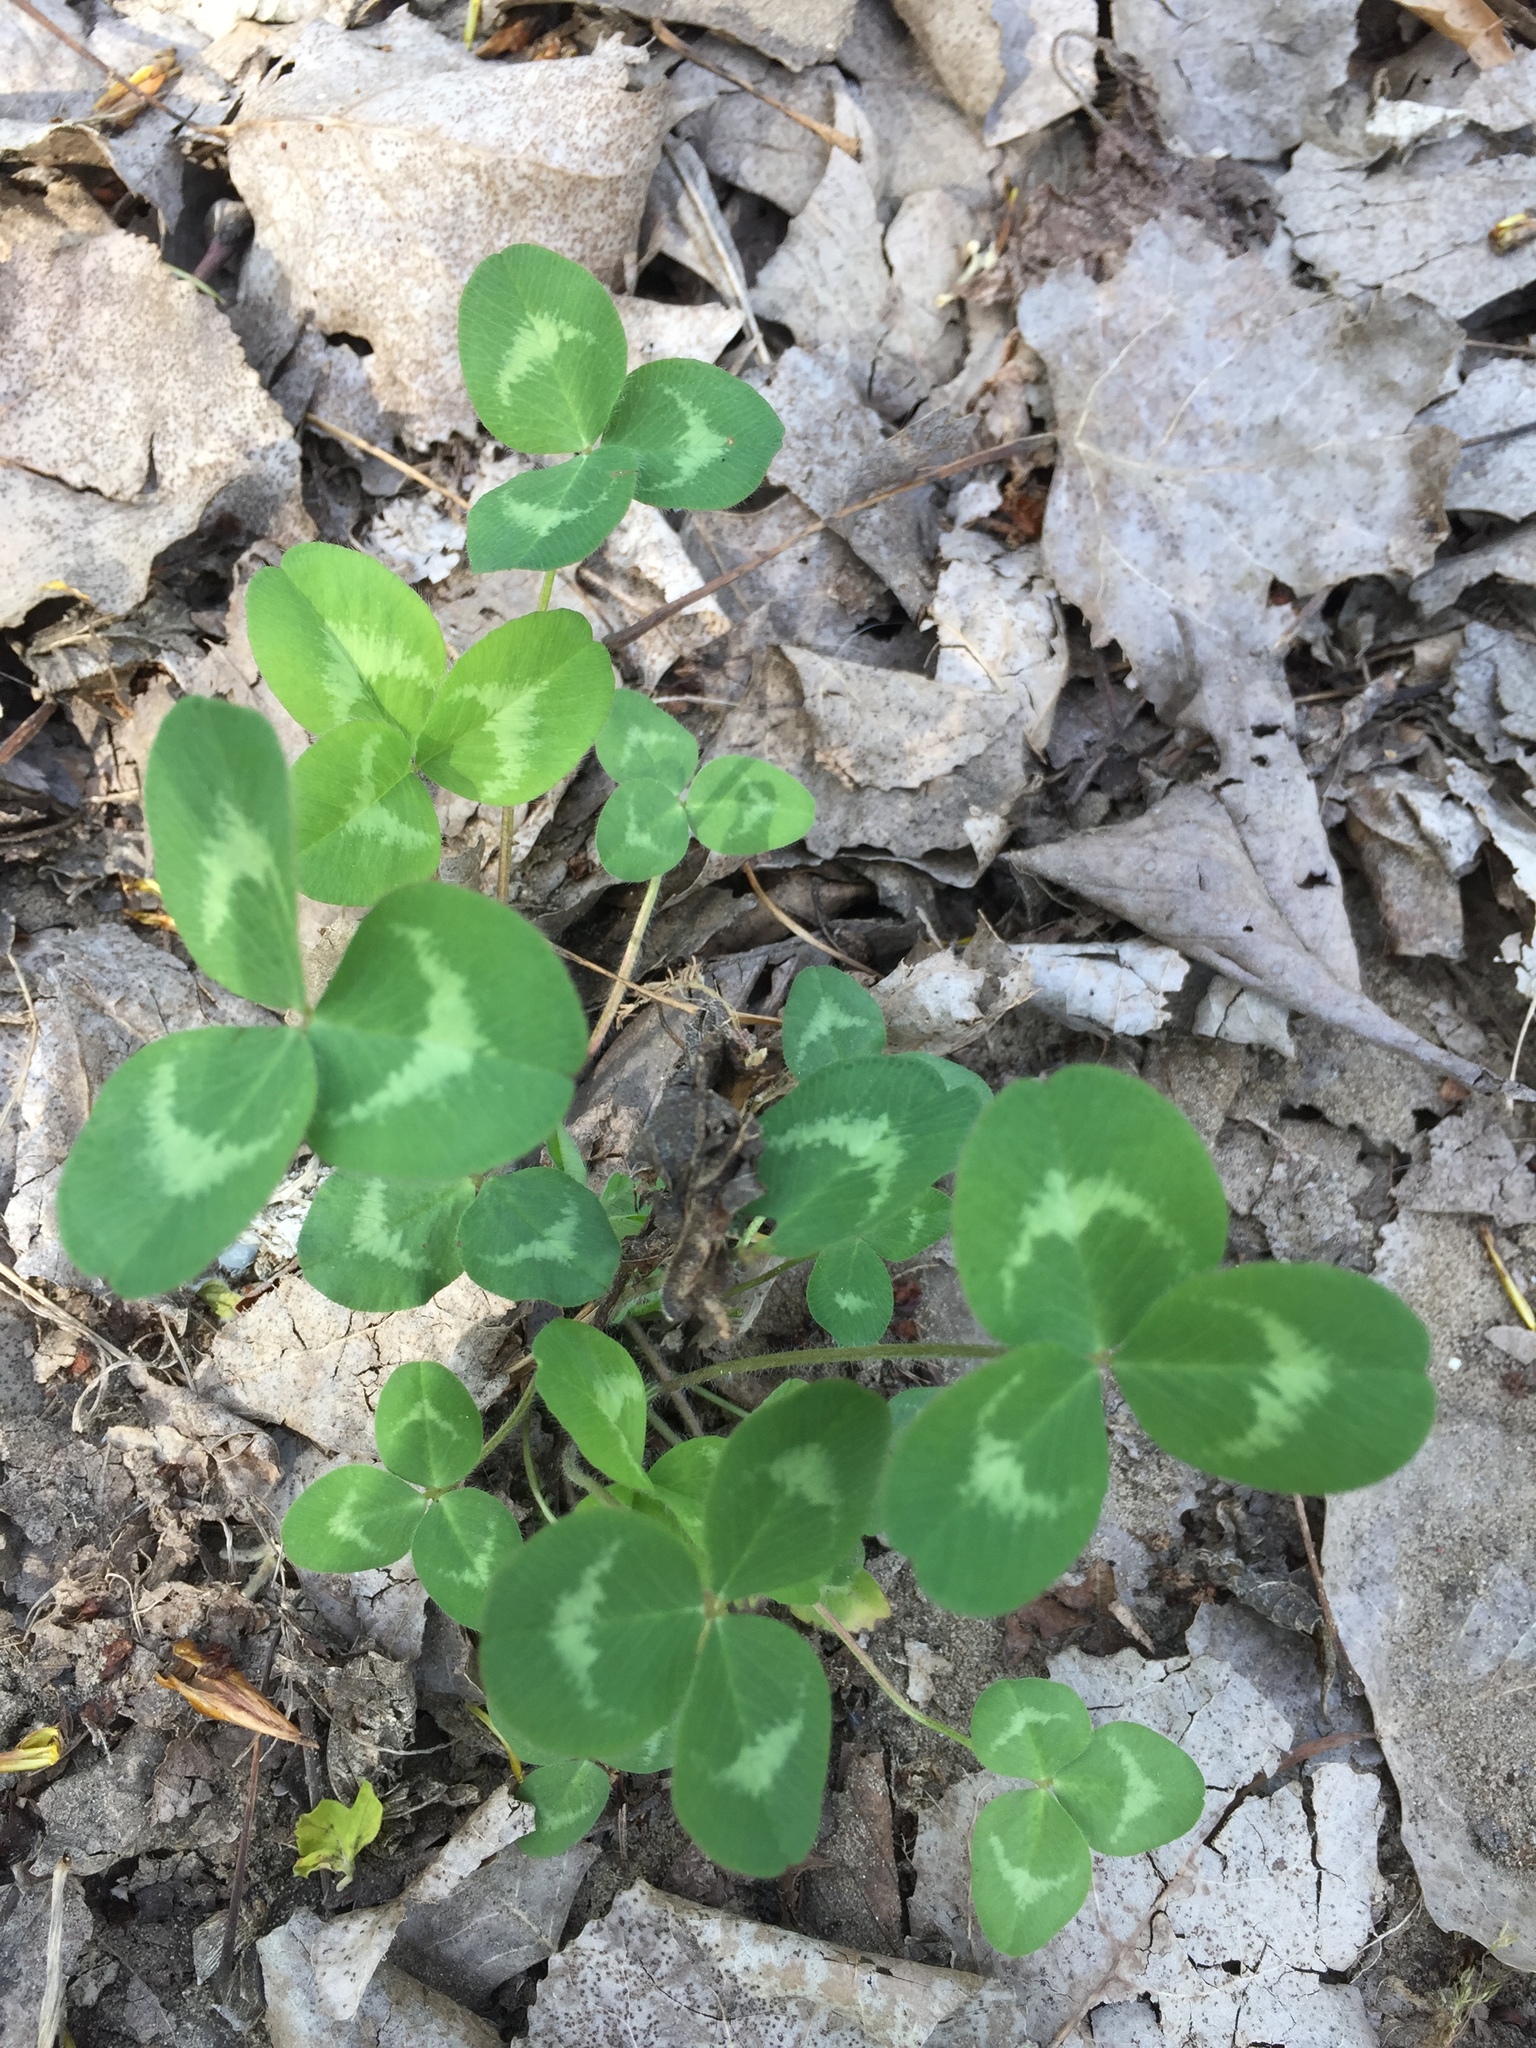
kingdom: Plantae
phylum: Tracheophyta
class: Magnoliopsida
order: Fabales
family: Fabaceae
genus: Trifolium
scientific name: Trifolium pratense
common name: Red clover
